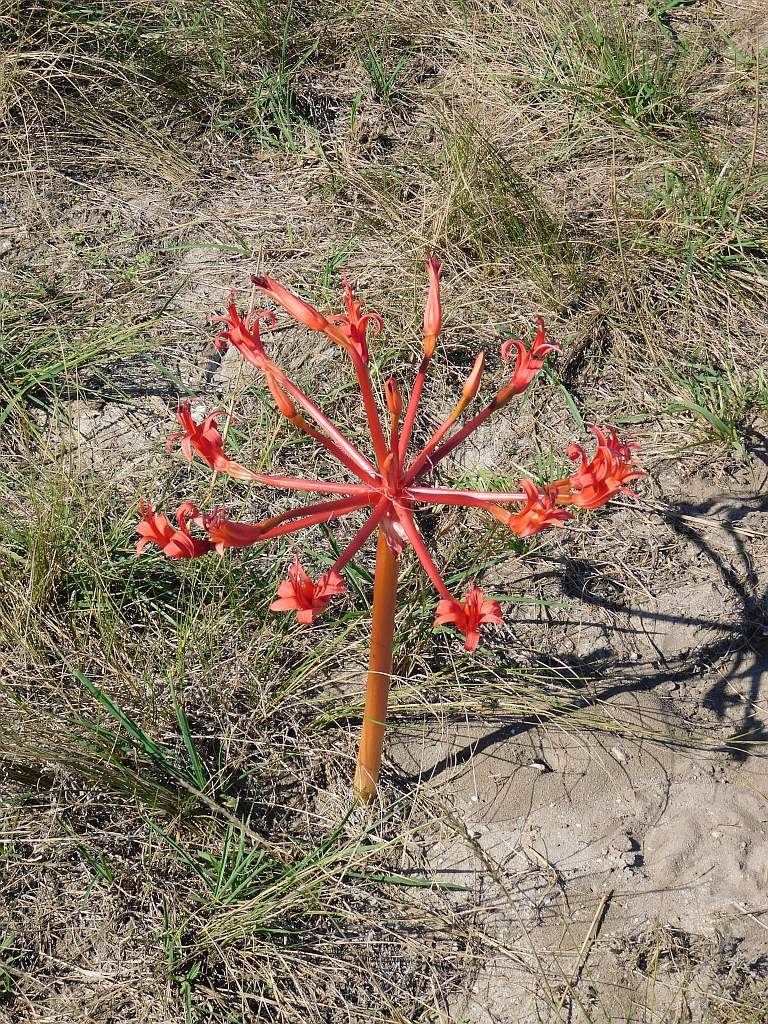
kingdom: Plantae
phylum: Tracheophyta
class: Liliopsida
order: Asparagales
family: Amaryllidaceae
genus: Brunsvigia
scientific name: Brunsvigia orientalis
